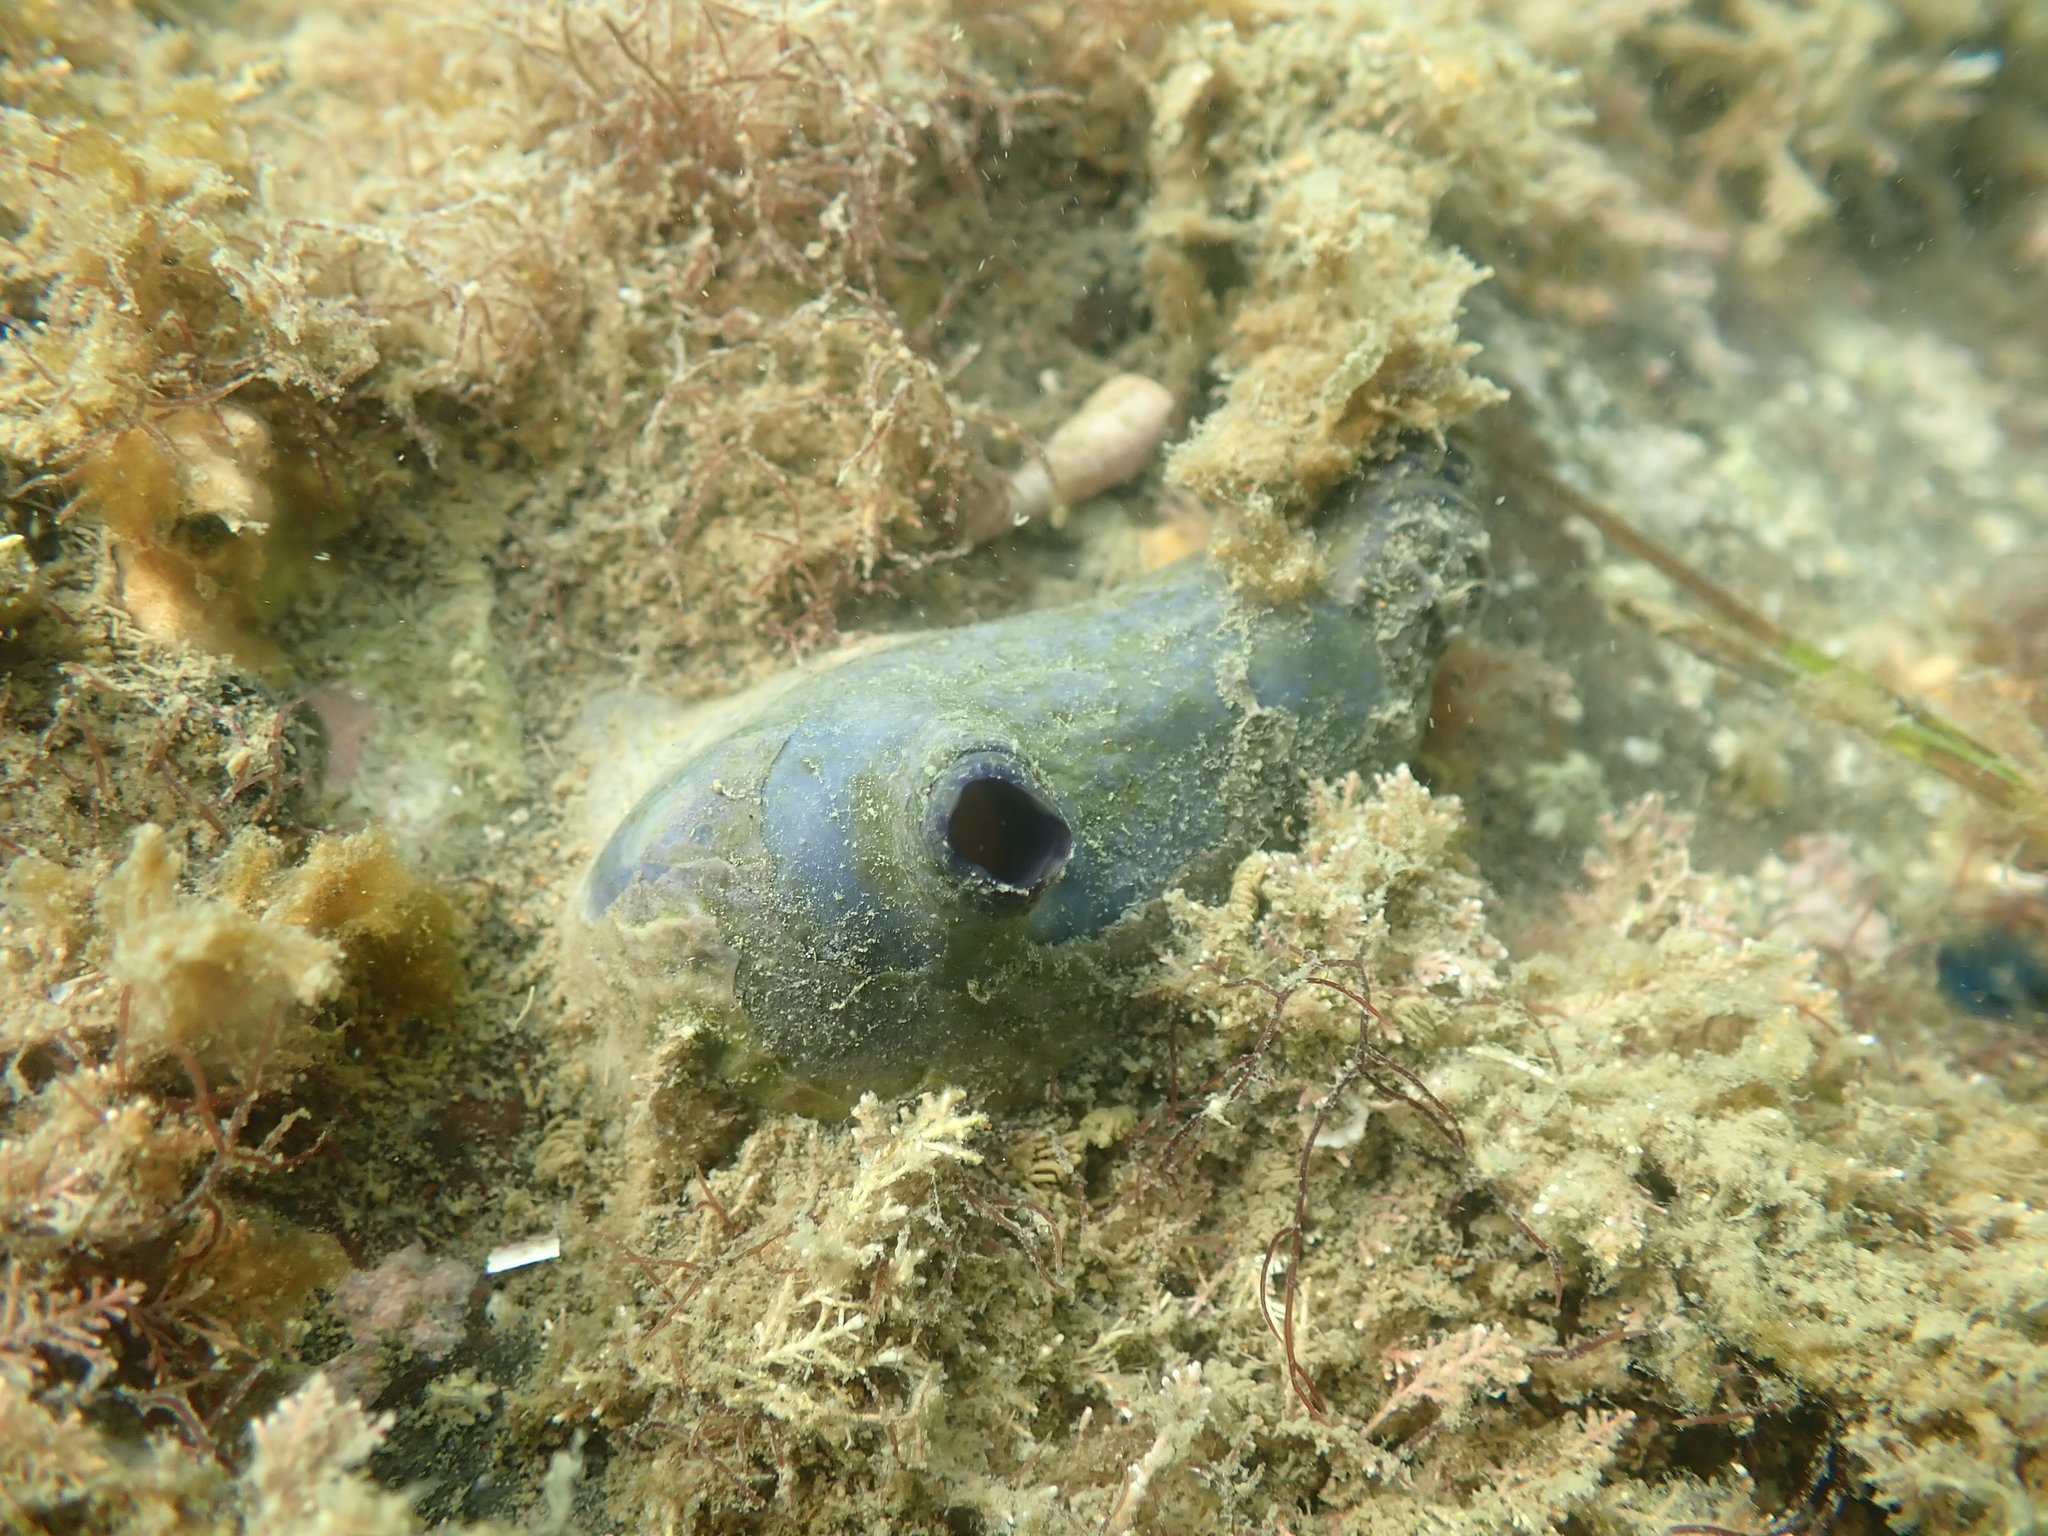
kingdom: Animalia
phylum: Chordata
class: Ascidiacea
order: Stolidobranchia
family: Styelidae
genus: Asterocarpa
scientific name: Asterocarpa coerulea
